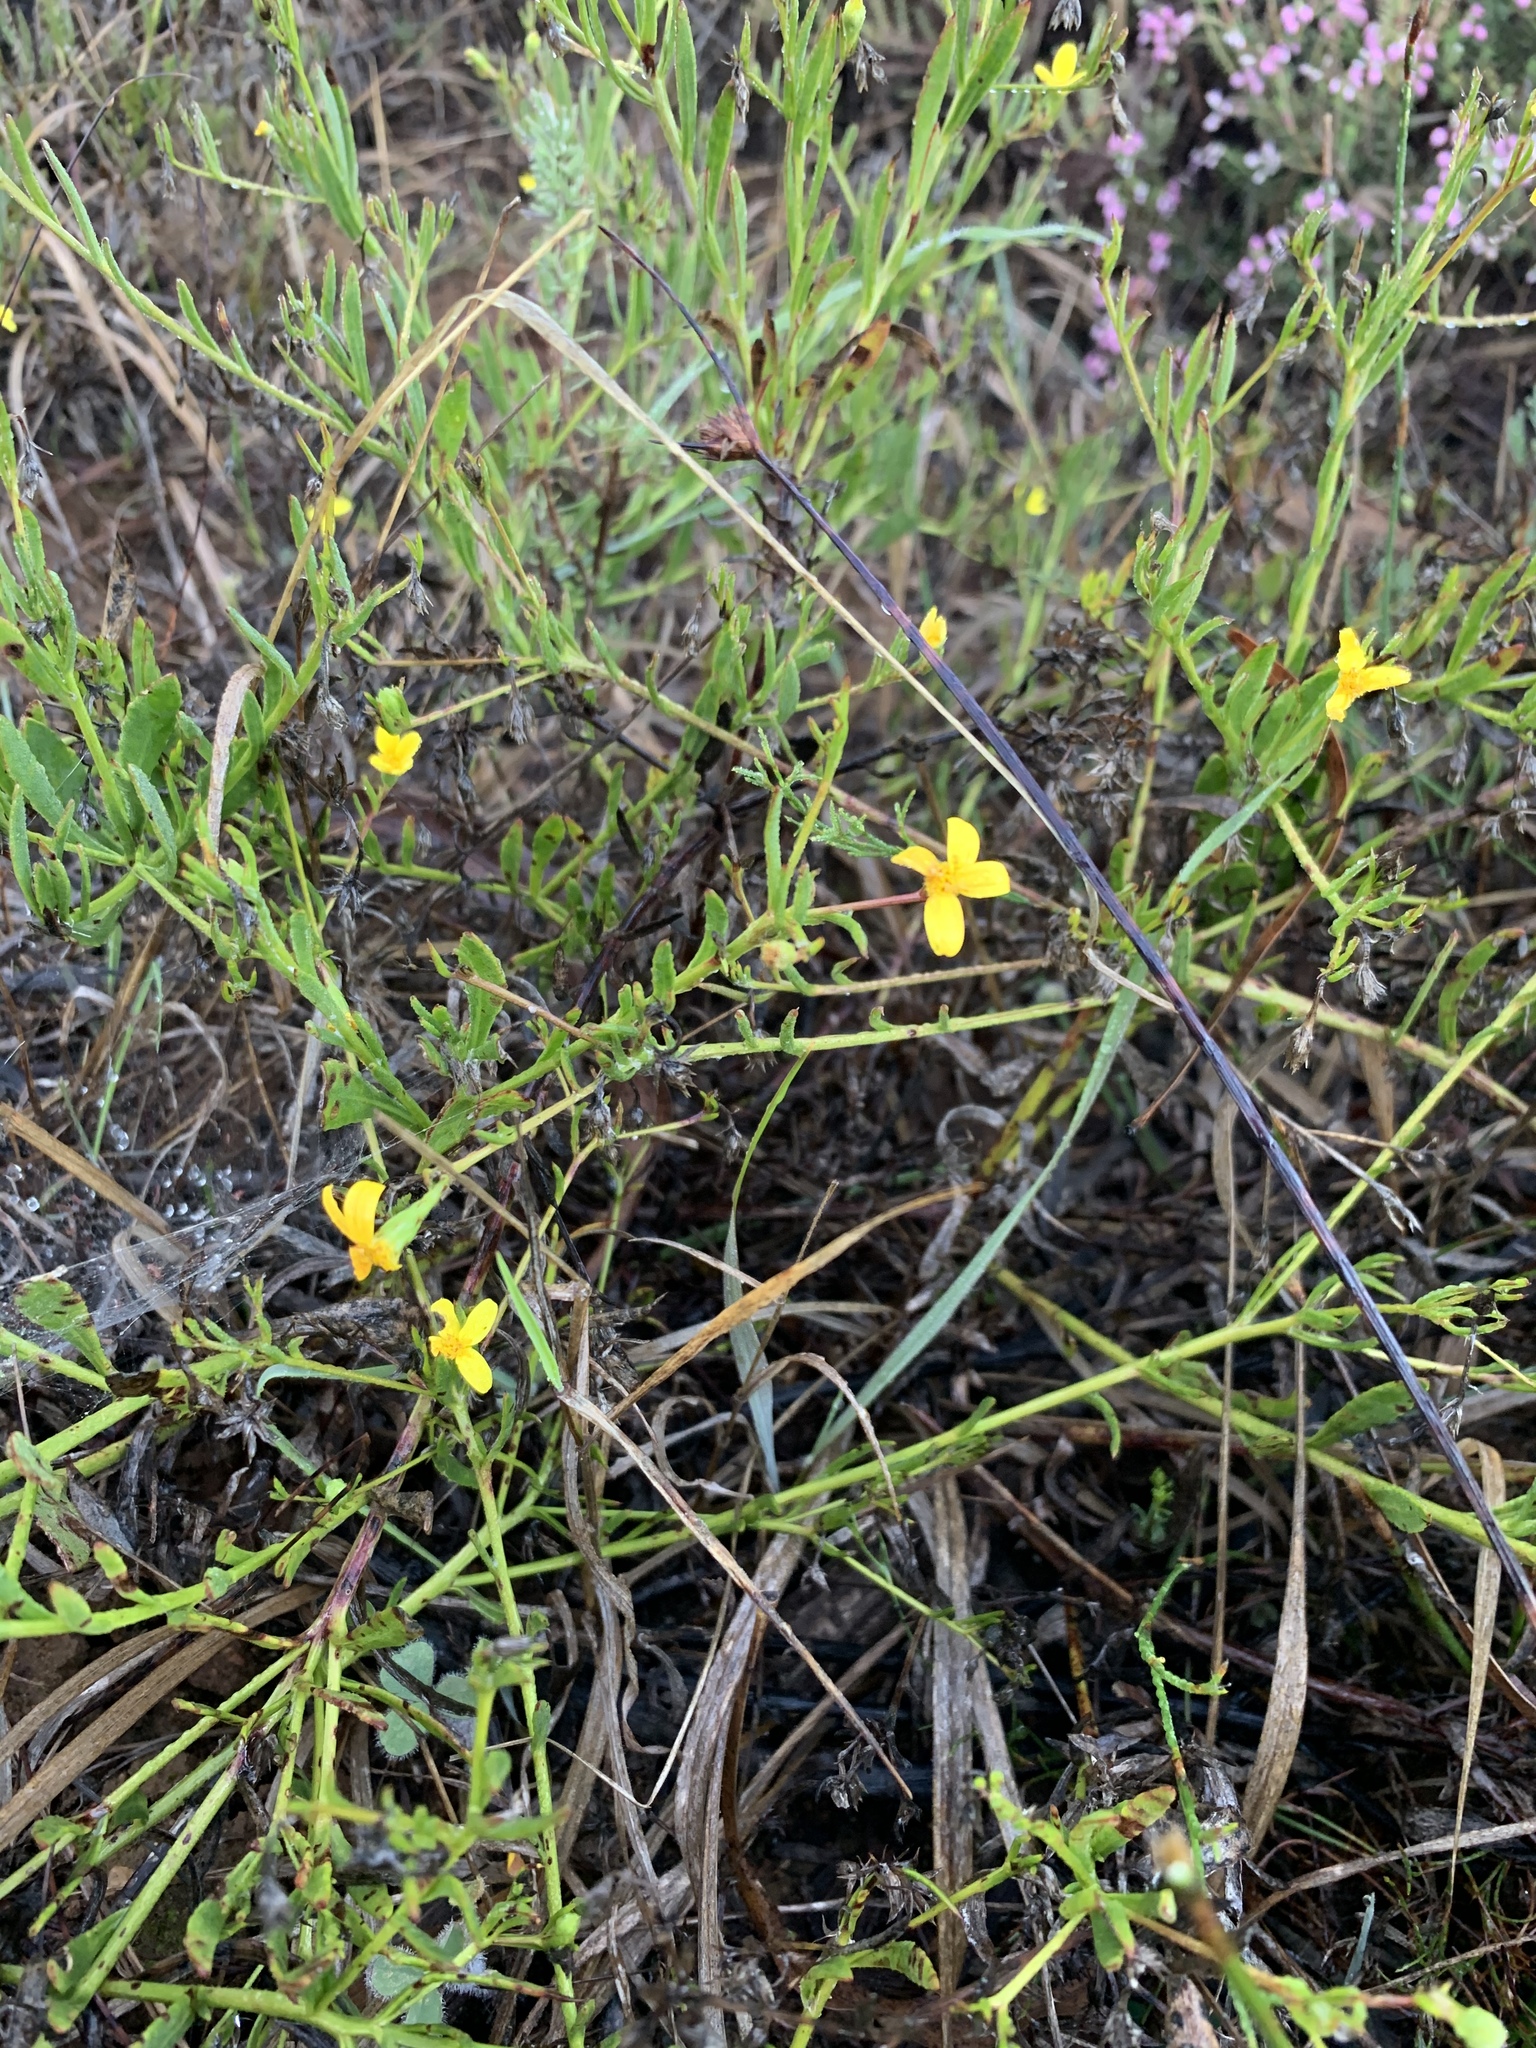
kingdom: Plantae
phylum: Tracheophyta
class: Magnoliopsida
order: Asterales
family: Asteraceae
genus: Osteospermum
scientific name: Osteospermum ciliatum
